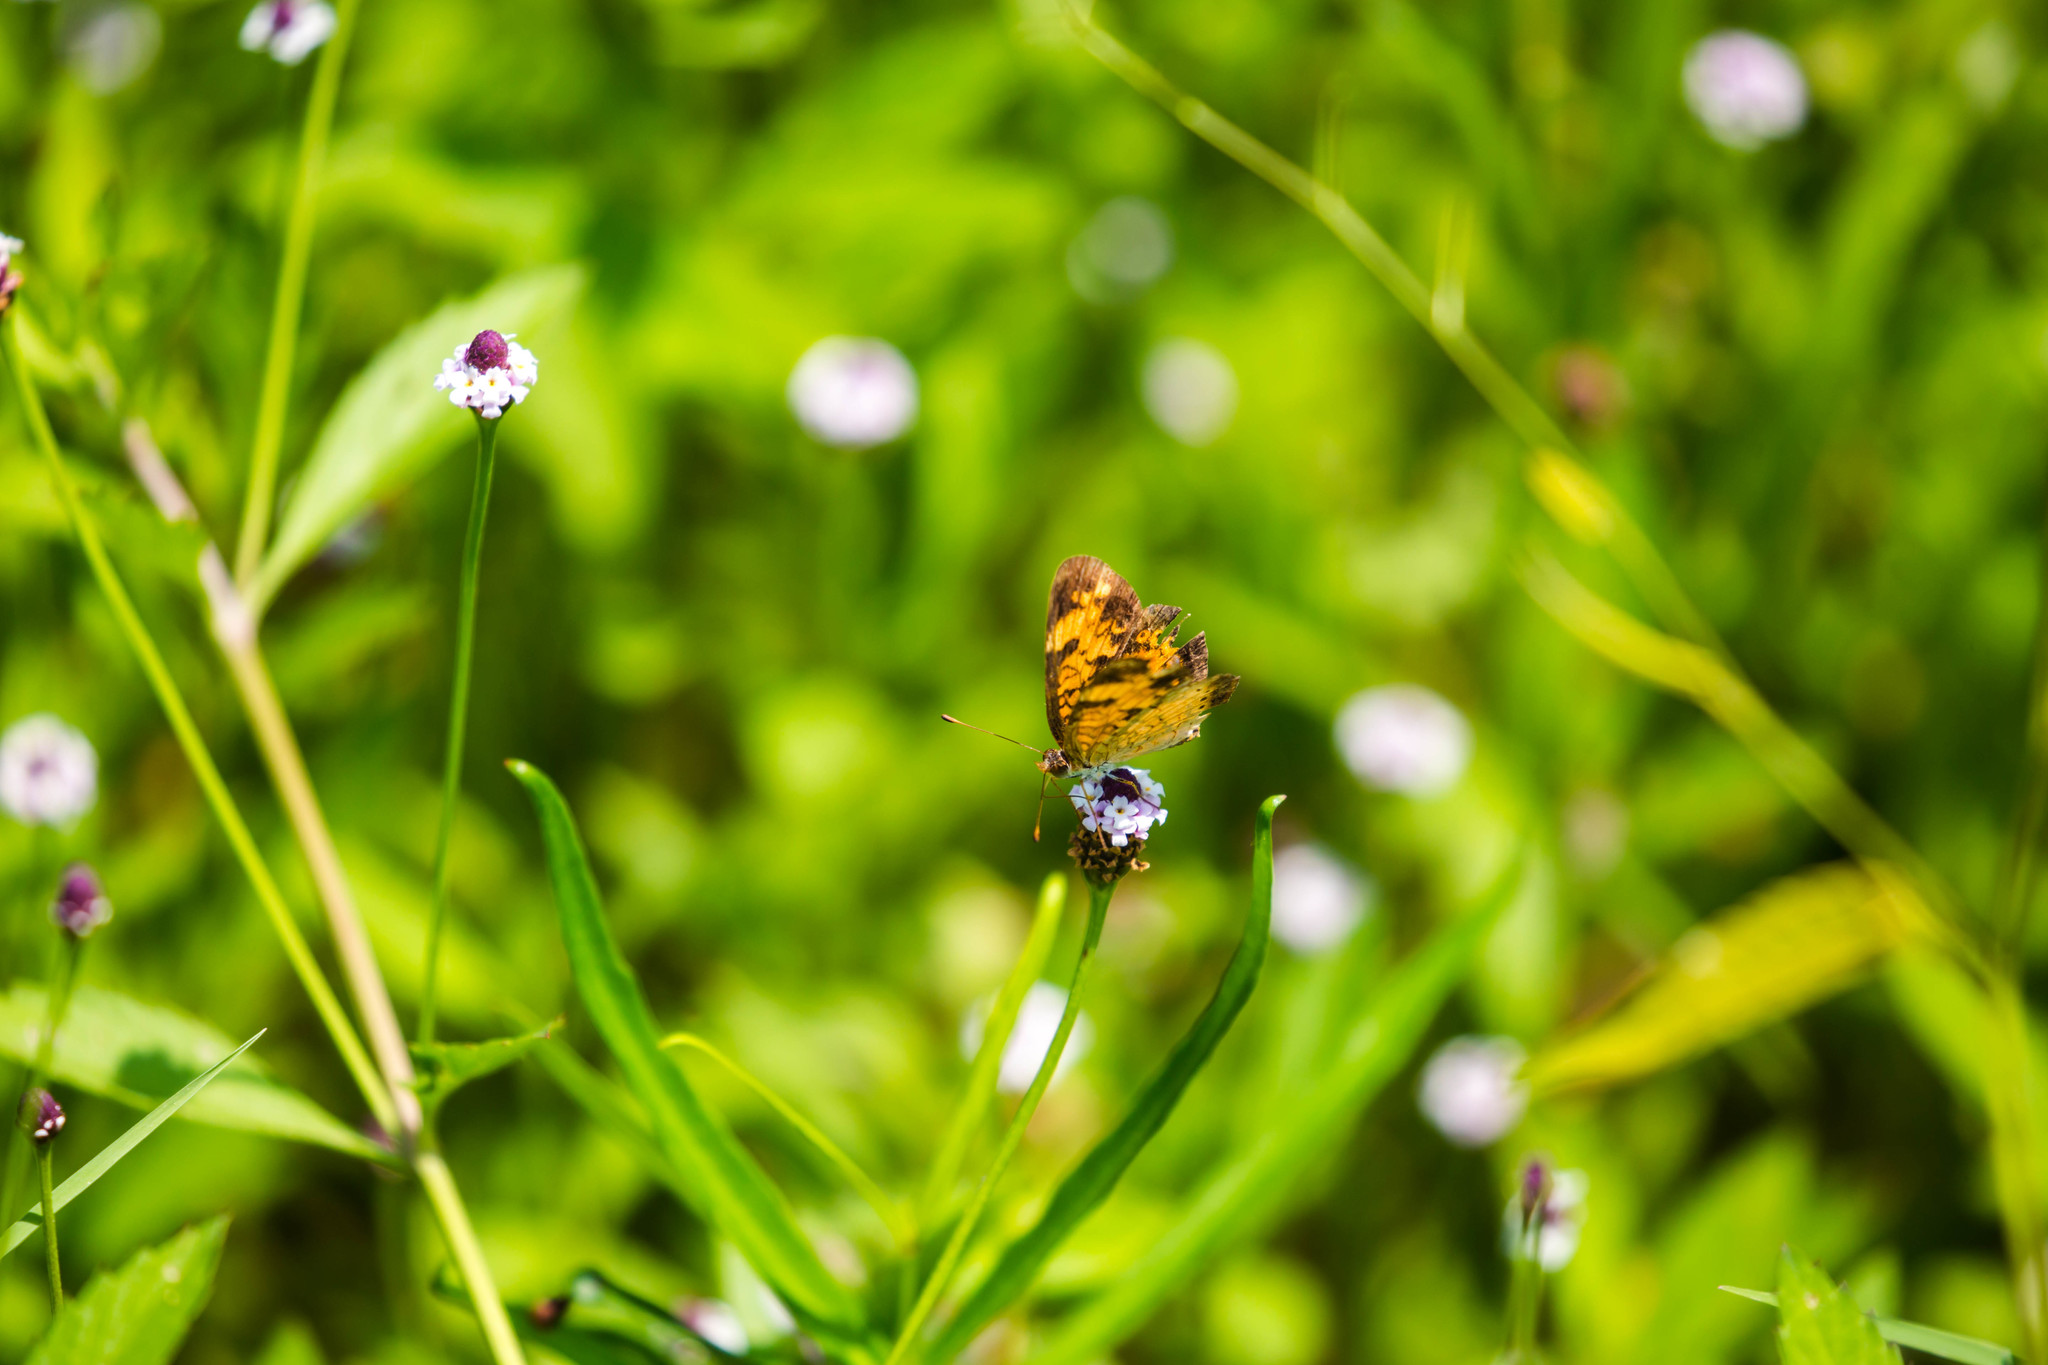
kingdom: Animalia
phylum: Arthropoda
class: Insecta
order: Lepidoptera
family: Nymphalidae
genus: Phyciodes
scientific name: Phyciodes tharos
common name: Pearl crescent
